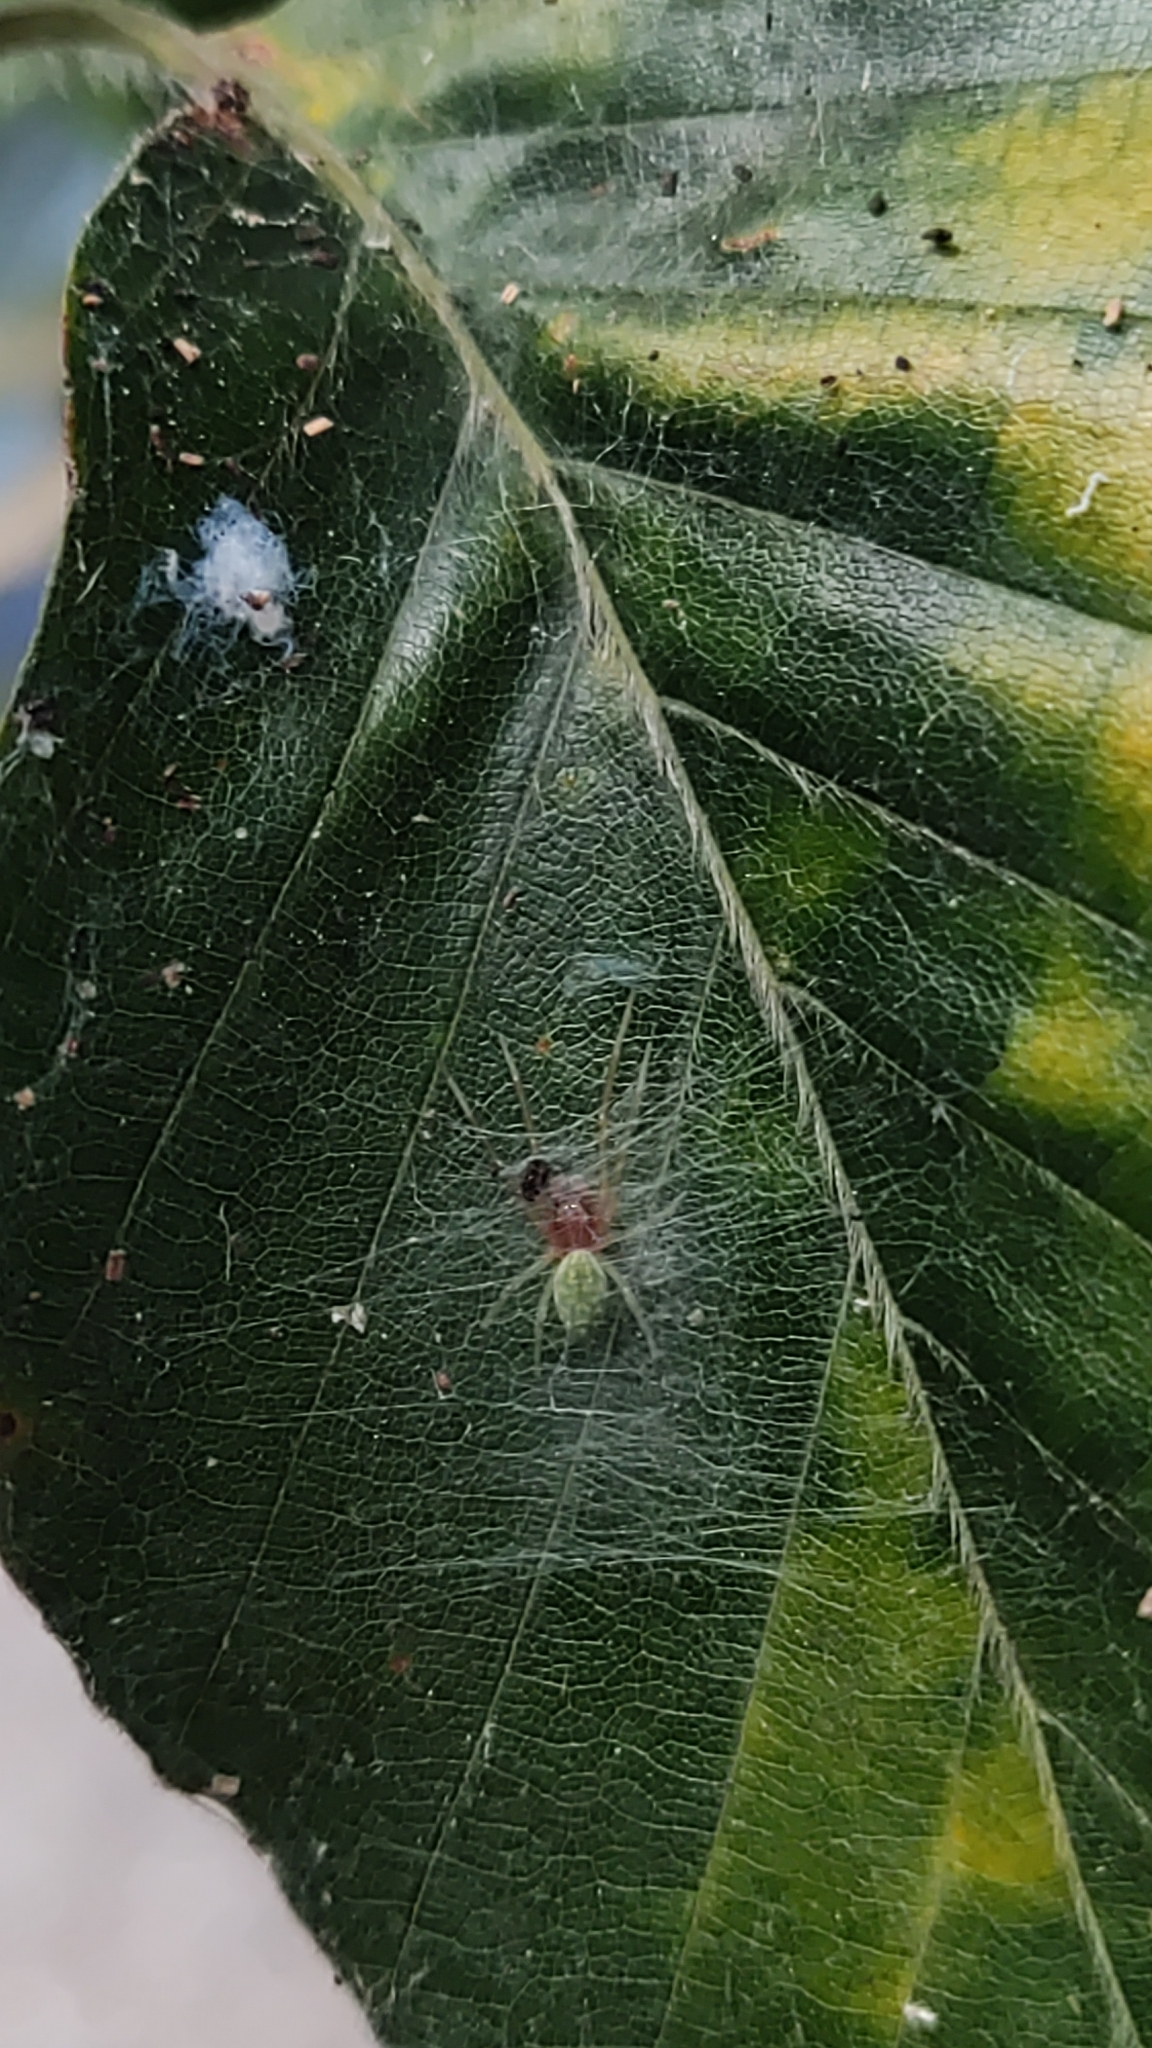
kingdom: Animalia
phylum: Arthropoda
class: Arachnida
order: Araneae
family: Dictynidae
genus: Nigma
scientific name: Nigma walckenaeri
